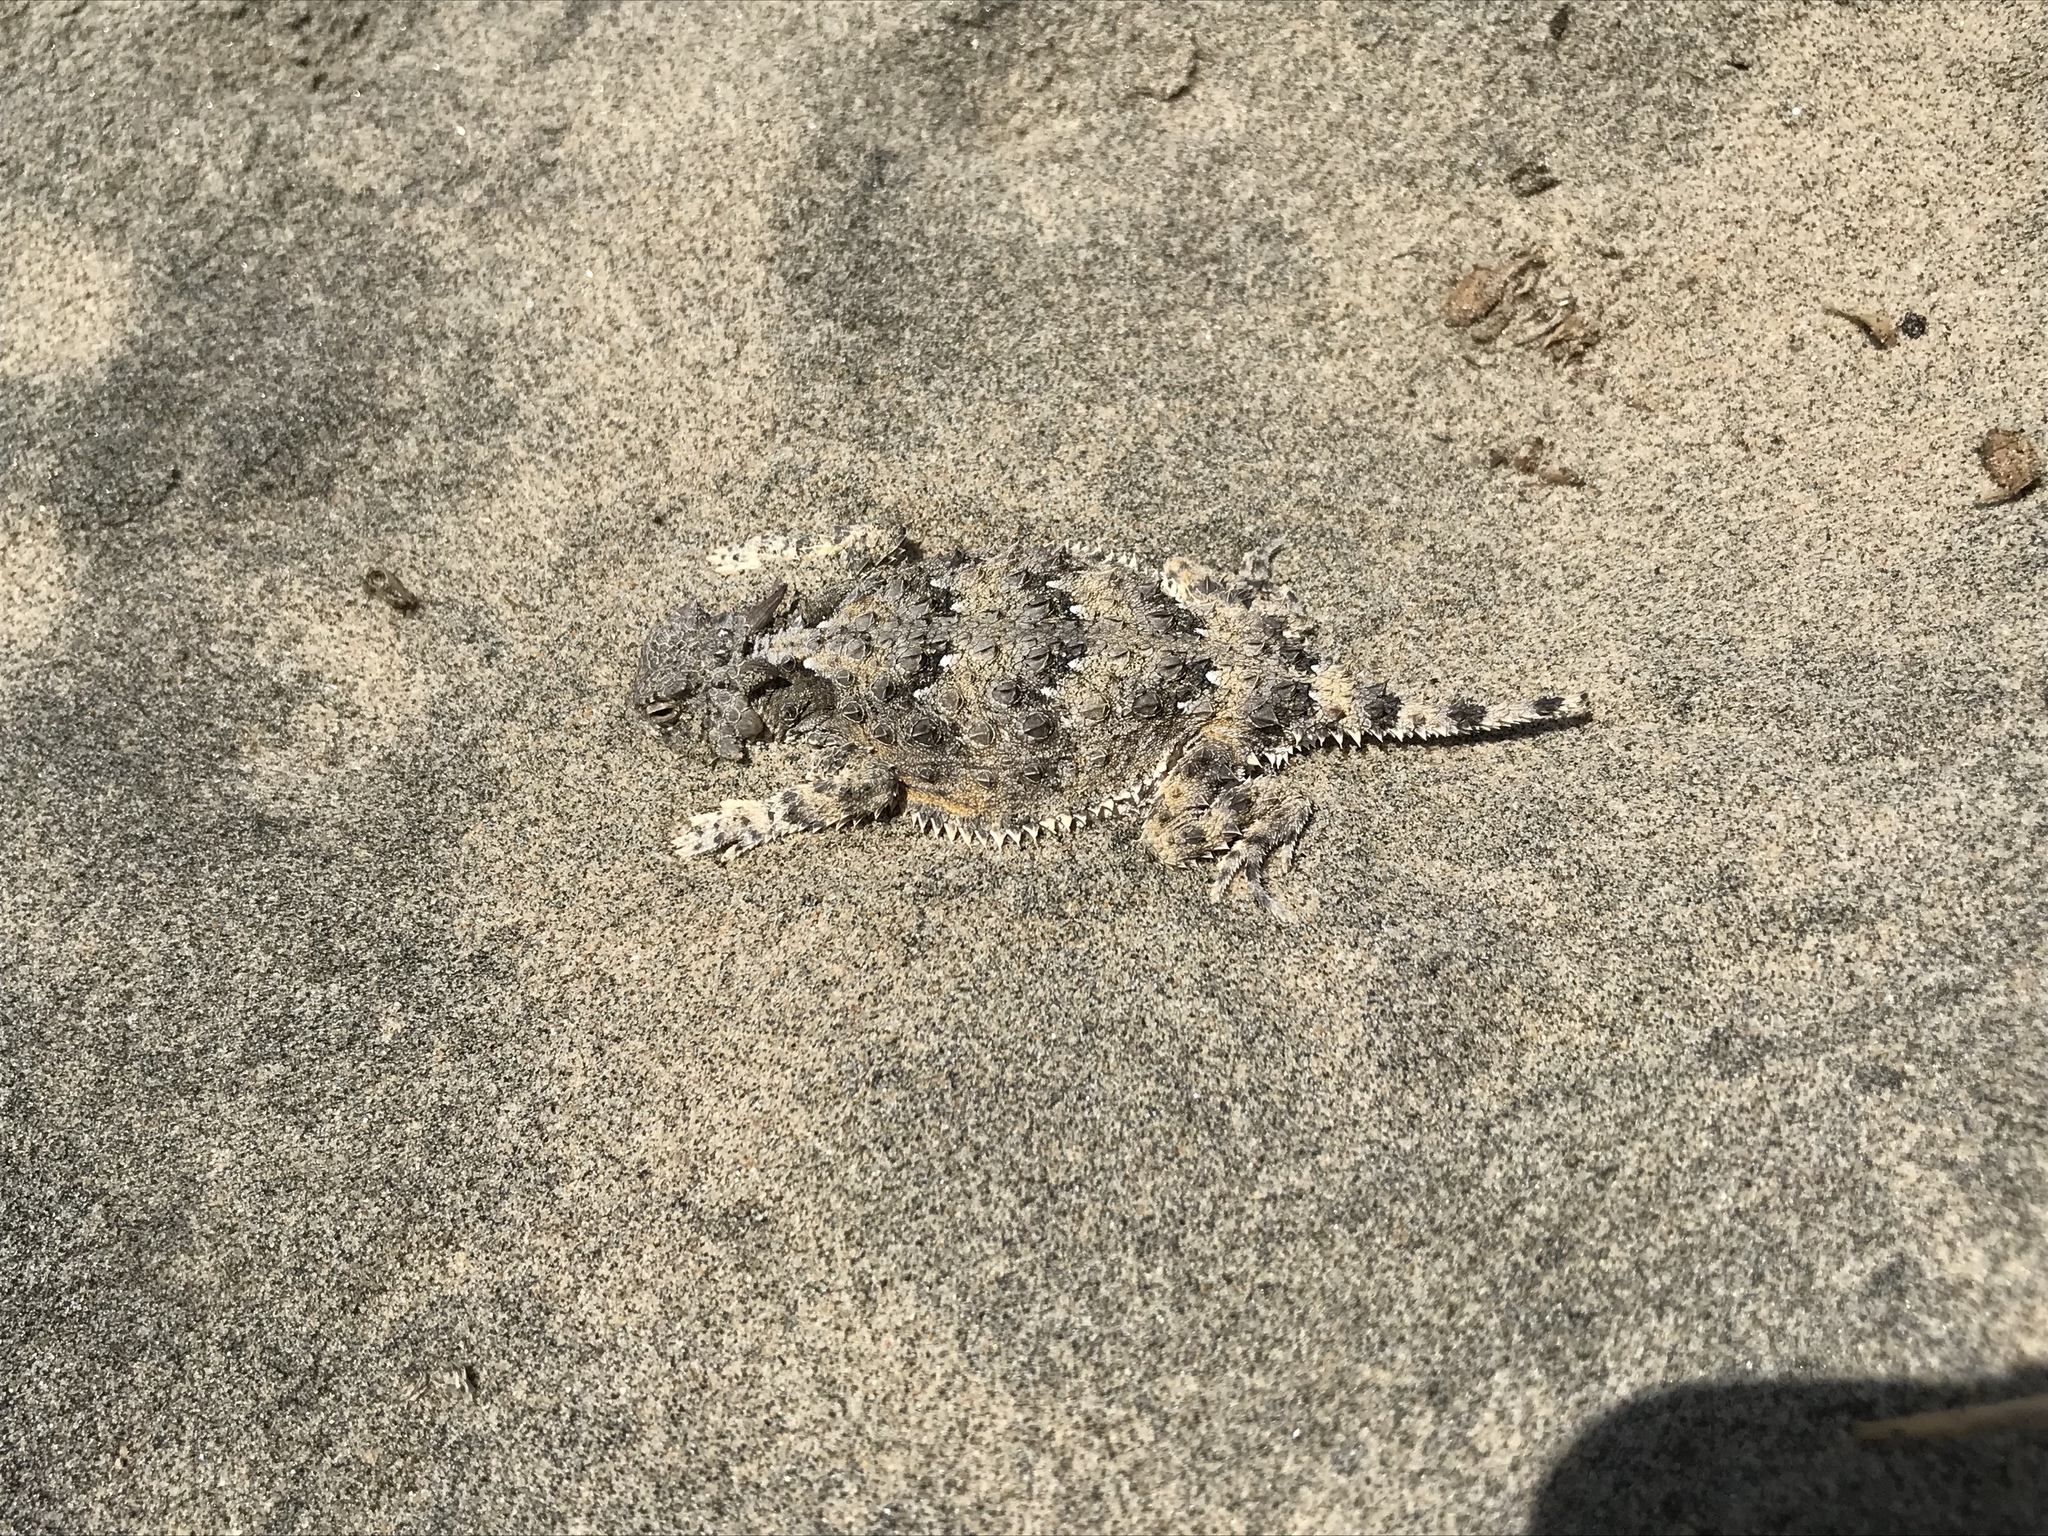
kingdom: Animalia
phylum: Chordata
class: Squamata
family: Phrynosomatidae
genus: Phrynosoma
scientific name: Phrynosoma cerroense
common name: Cedros island horned lizard
